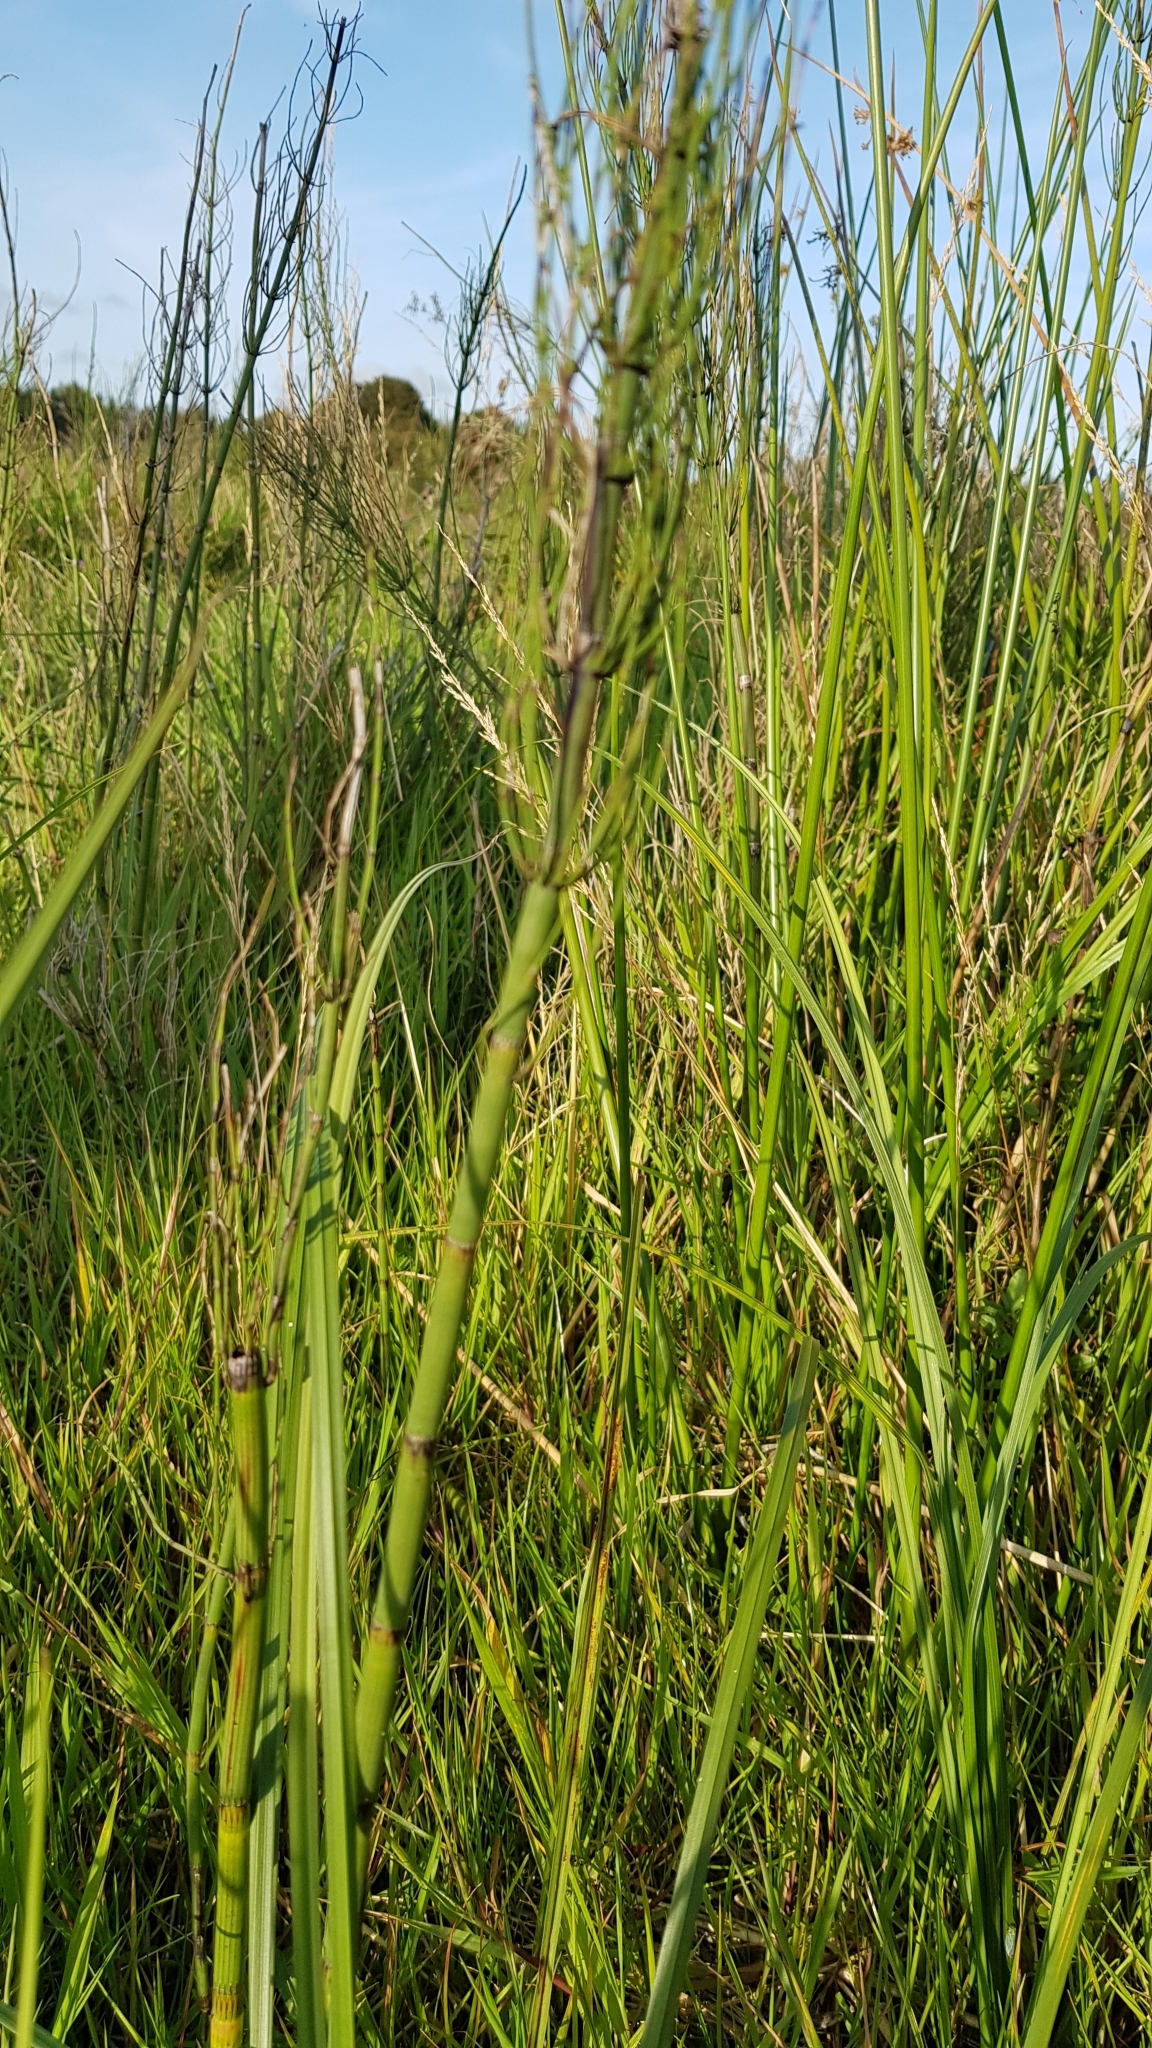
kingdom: Plantae
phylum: Tracheophyta
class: Polypodiopsida
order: Equisetales
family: Equisetaceae
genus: Equisetum
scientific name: Equisetum fluviatile
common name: Water horsetail
